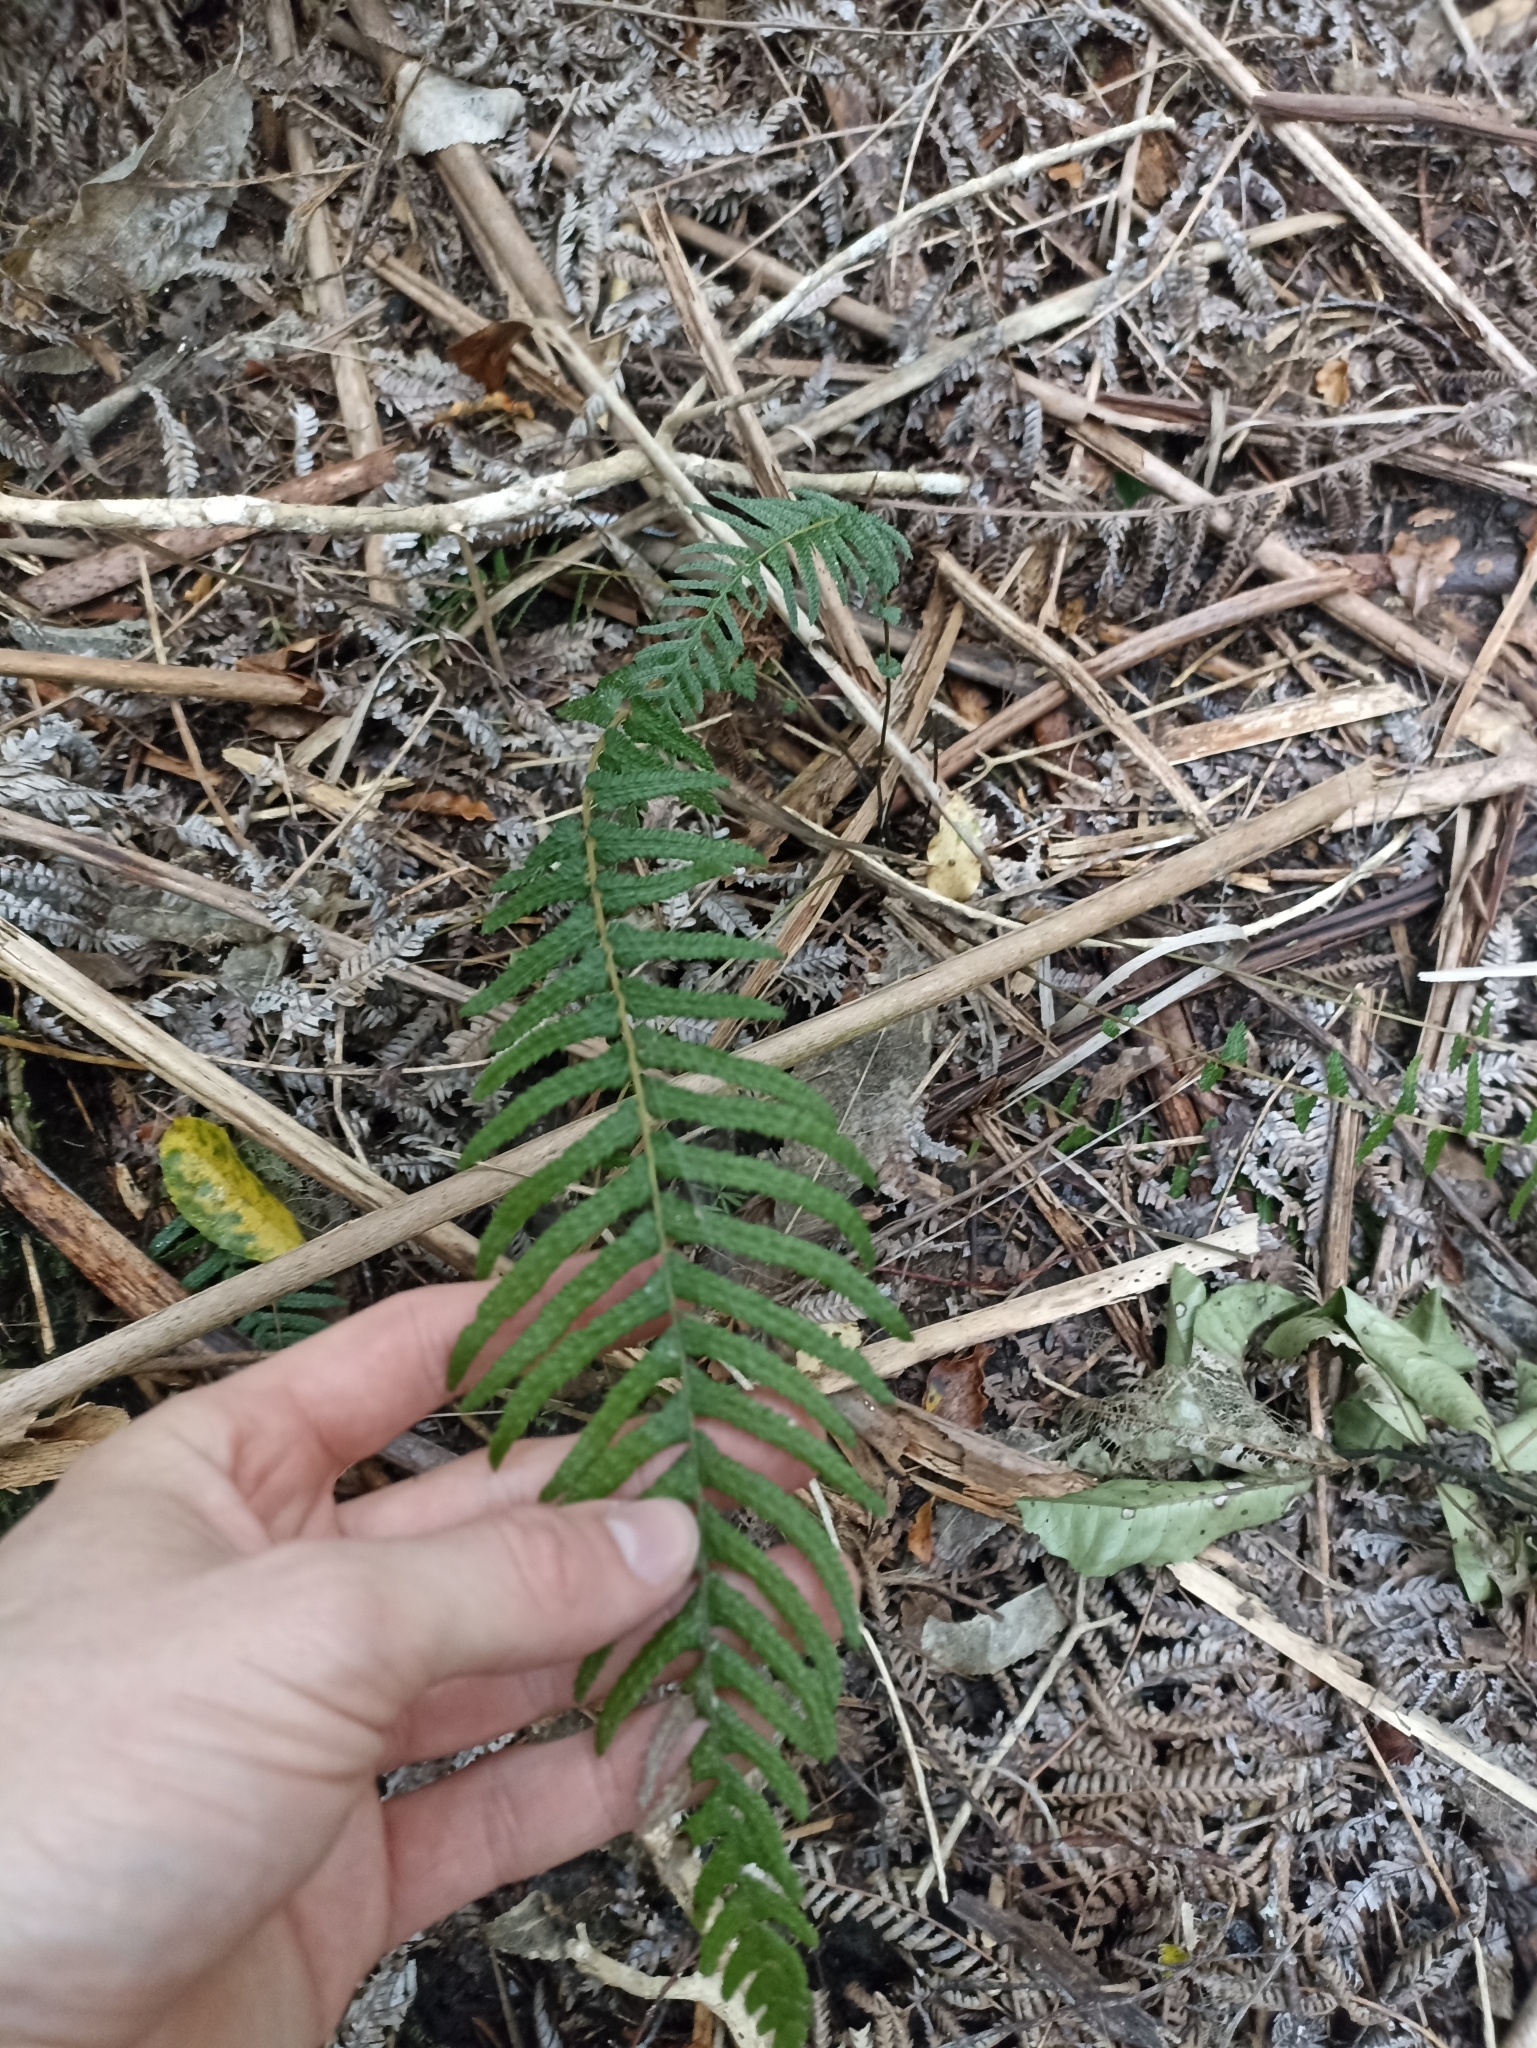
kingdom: Plantae
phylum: Tracheophyta
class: Polypodiopsida
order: Polypodiales
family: Blechnaceae
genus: Doodia
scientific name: Doodia australis
